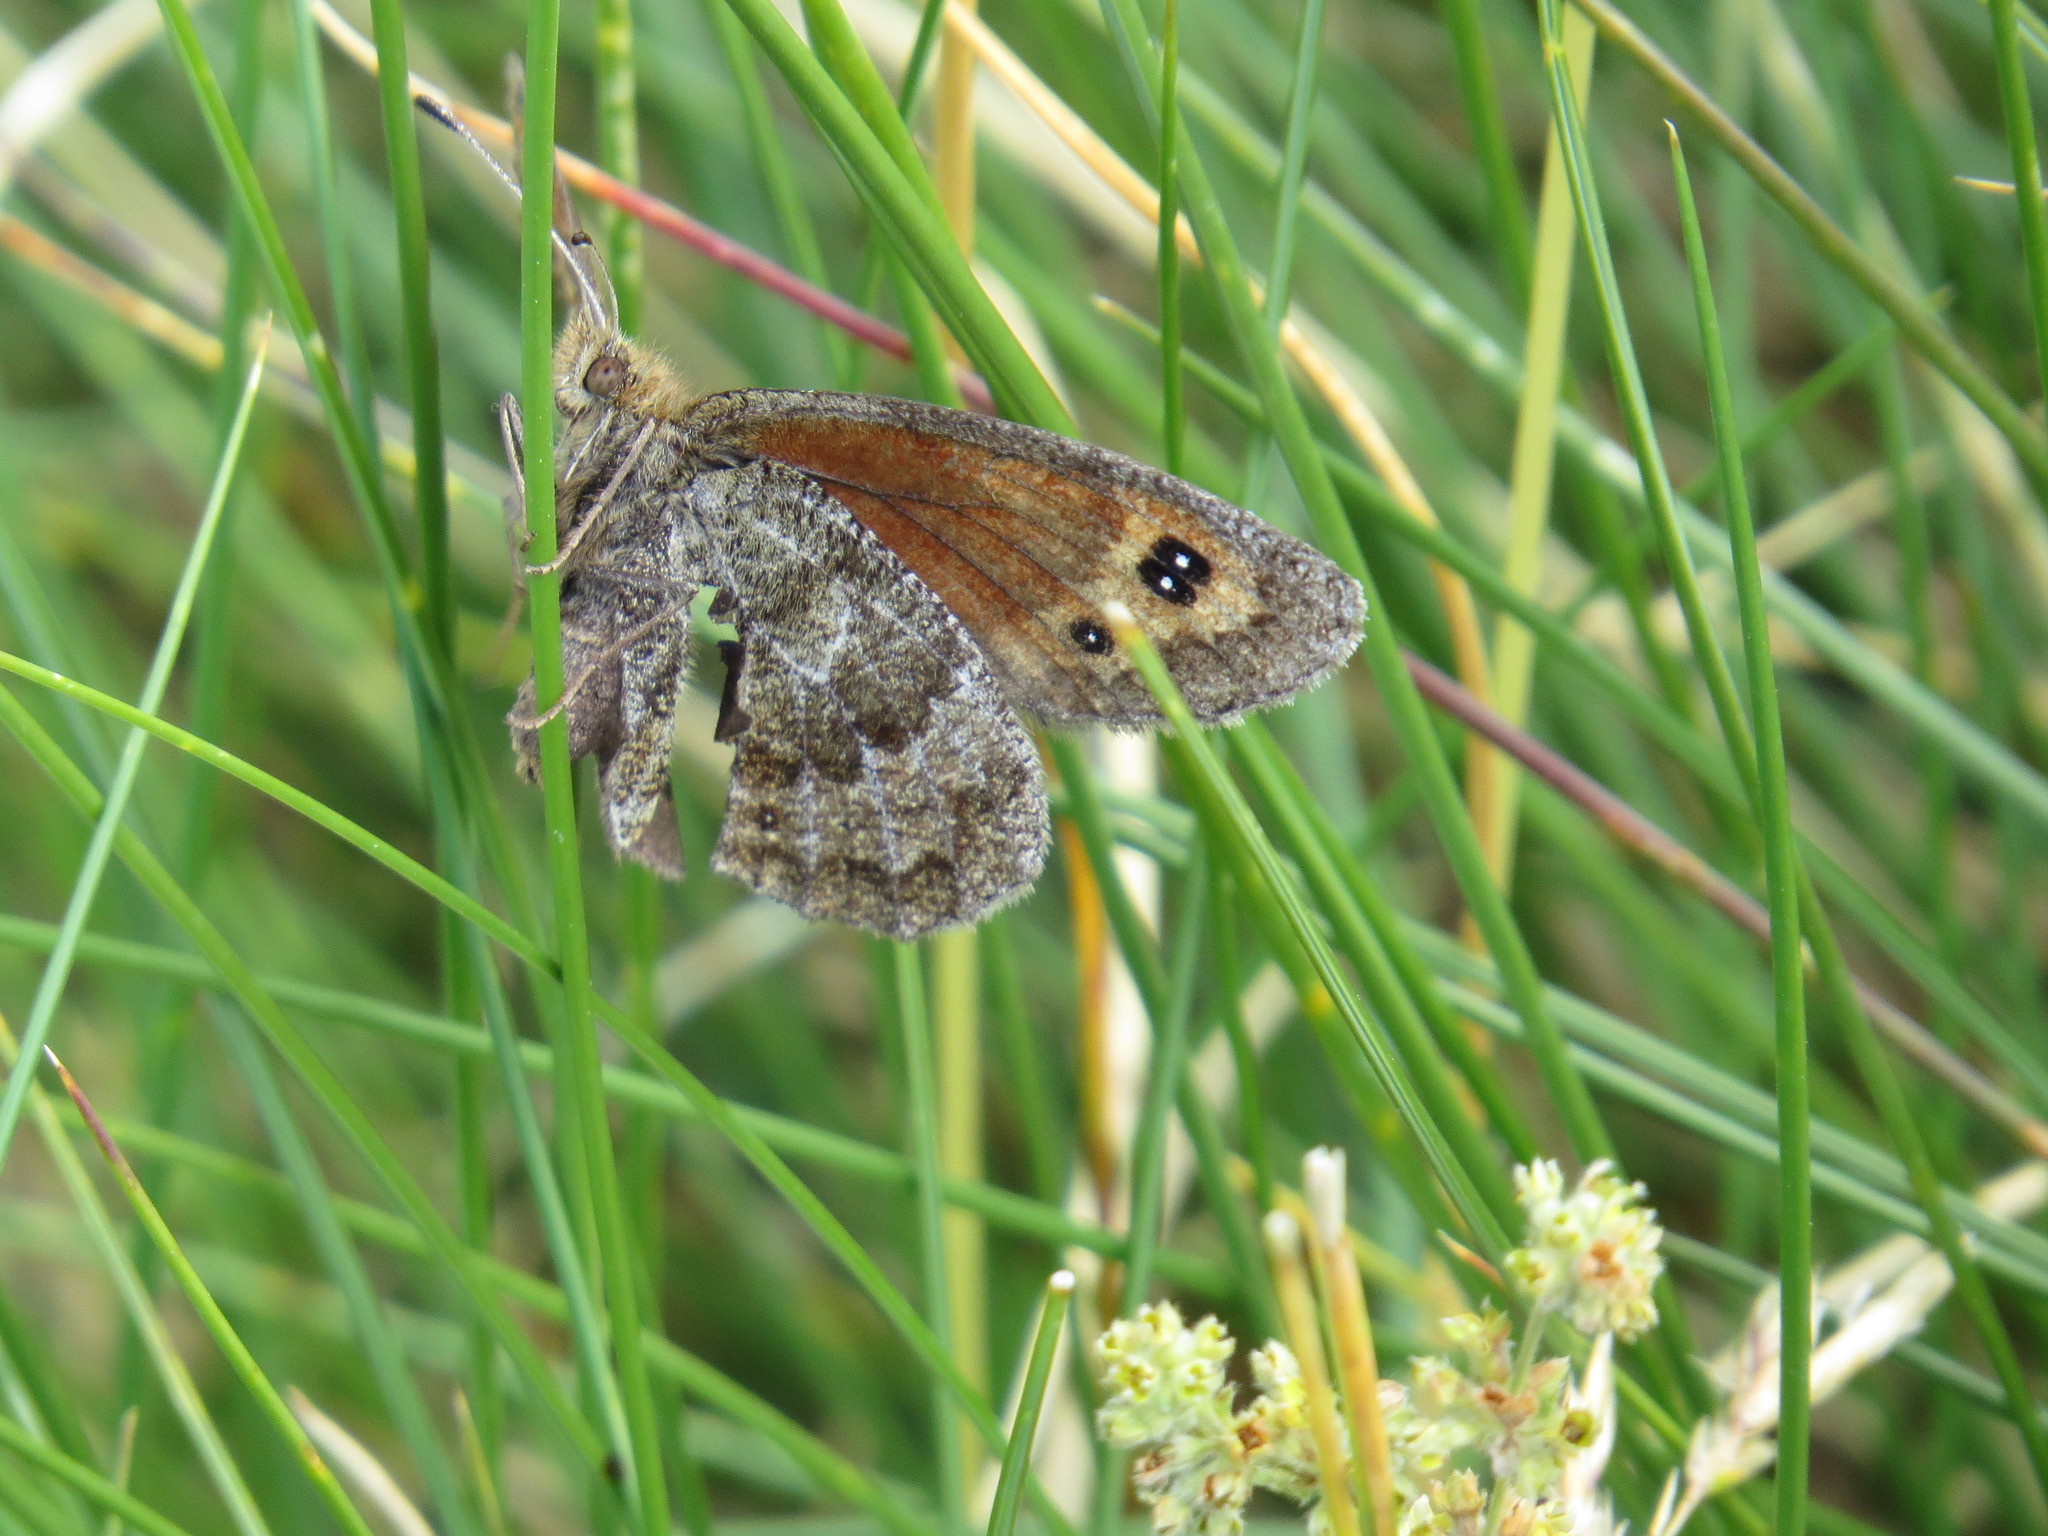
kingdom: Animalia
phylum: Arthropoda
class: Insecta
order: Lepidoptera
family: Nymphalidae
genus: Erebia
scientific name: Erebia pronoe
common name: Water ringlet
